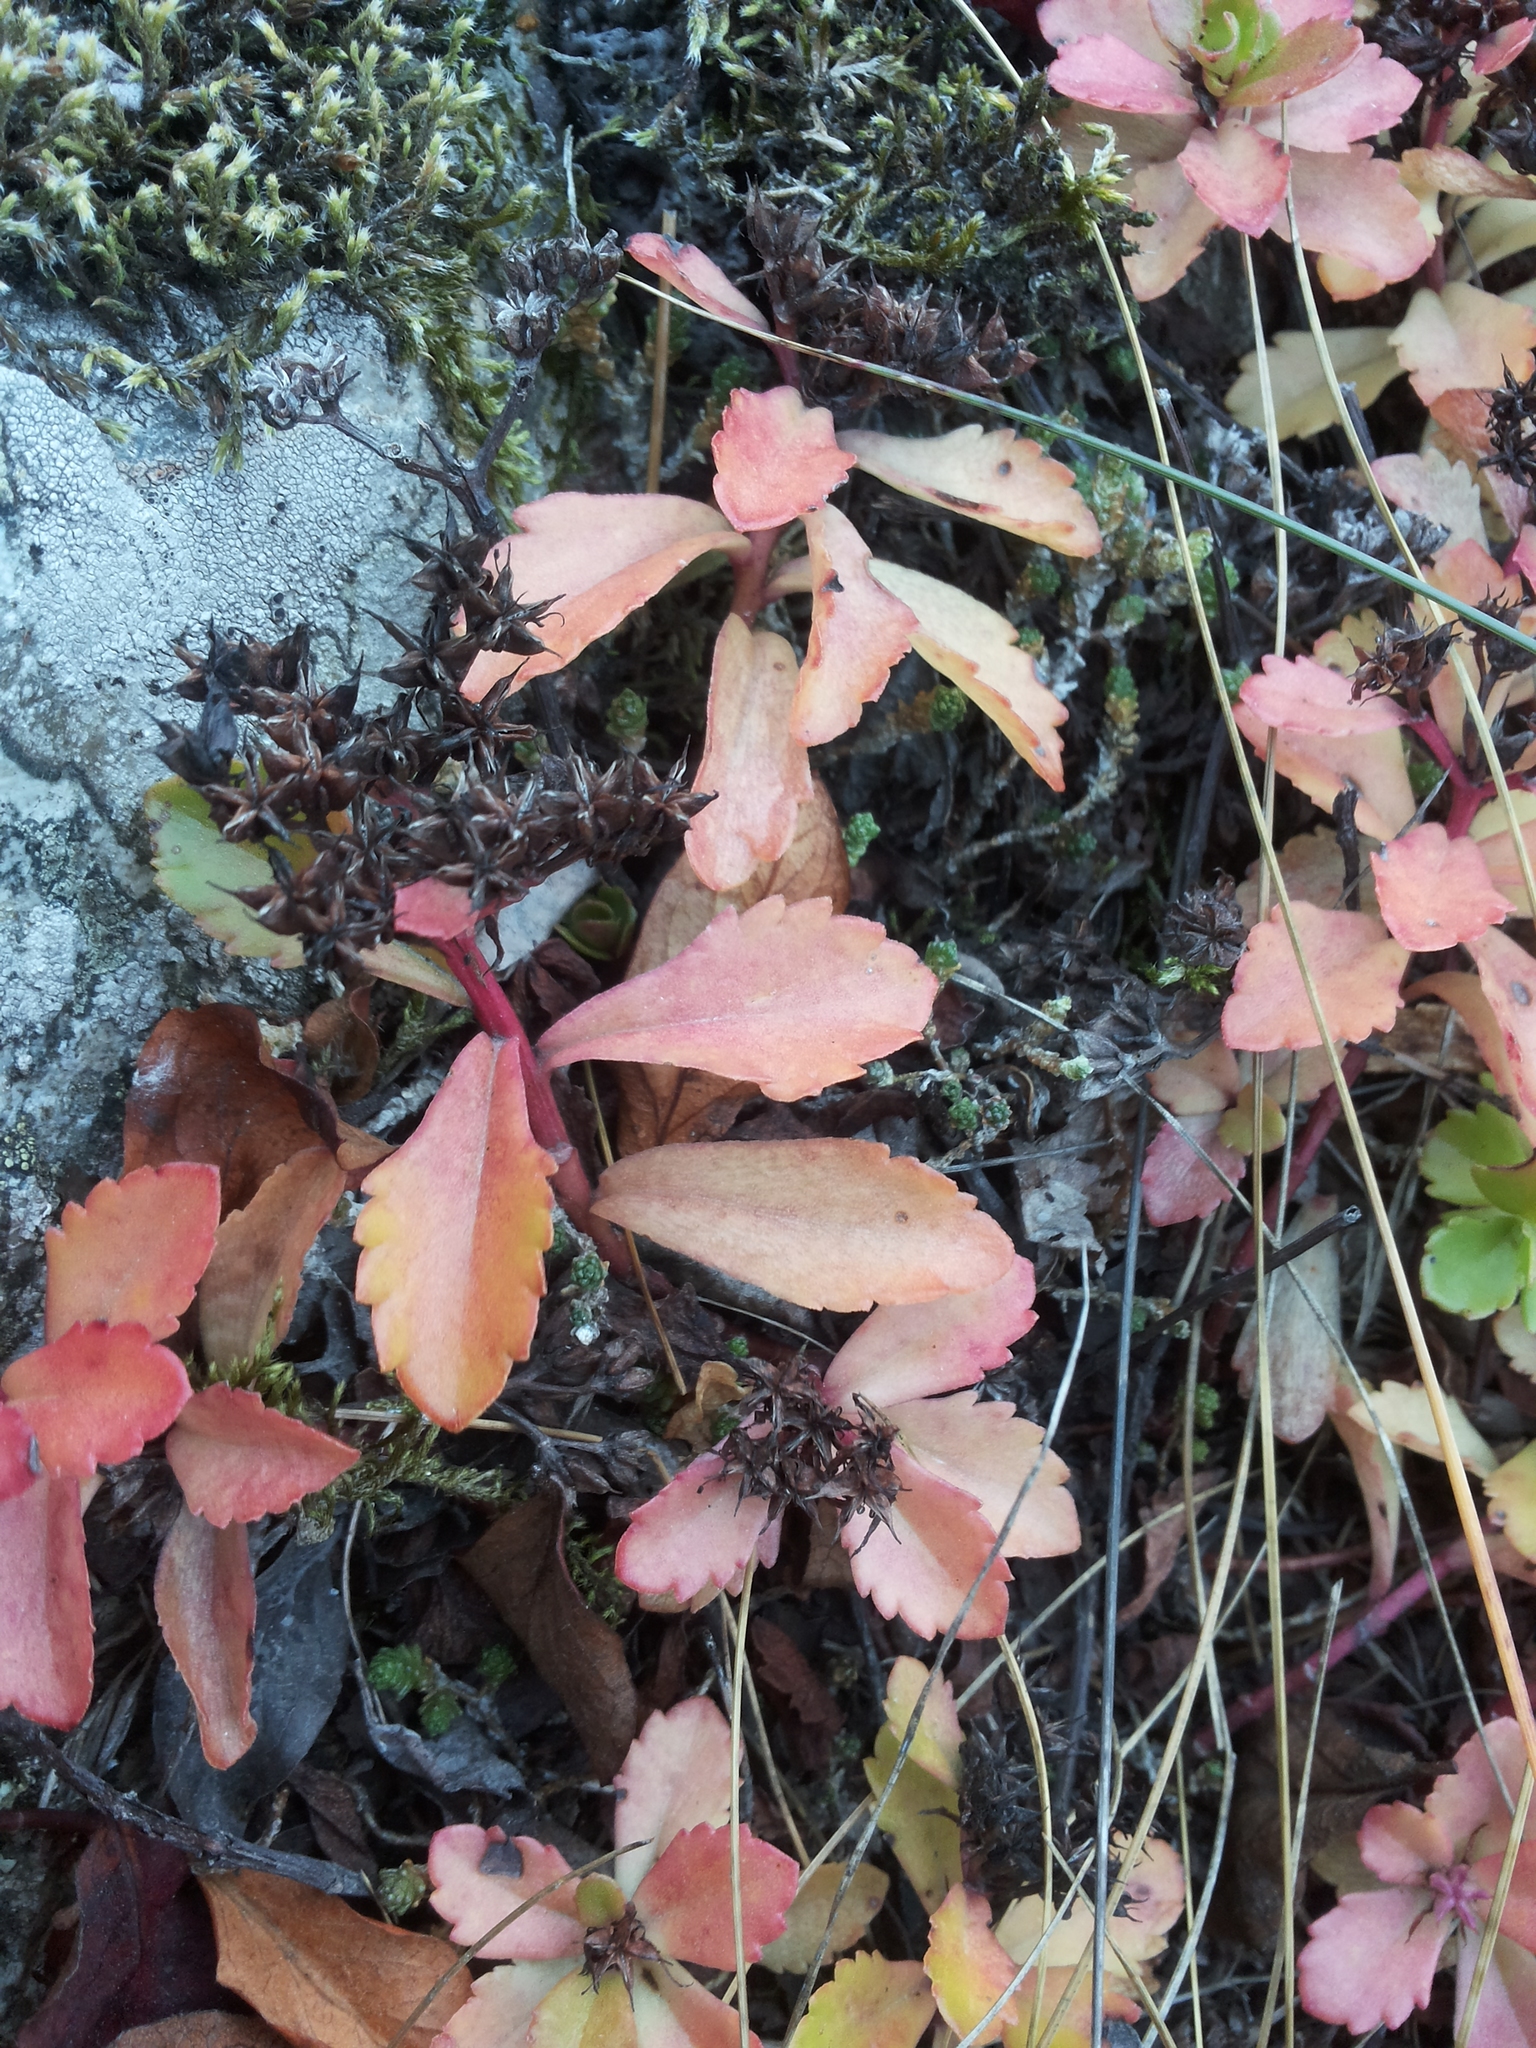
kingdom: Plantae
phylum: Tracheophyta
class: Magnoliopsida
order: Saxifragales
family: Crassulaceae
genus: Phedimus
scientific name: Phedimus aizoon
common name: Orpin aizoon
